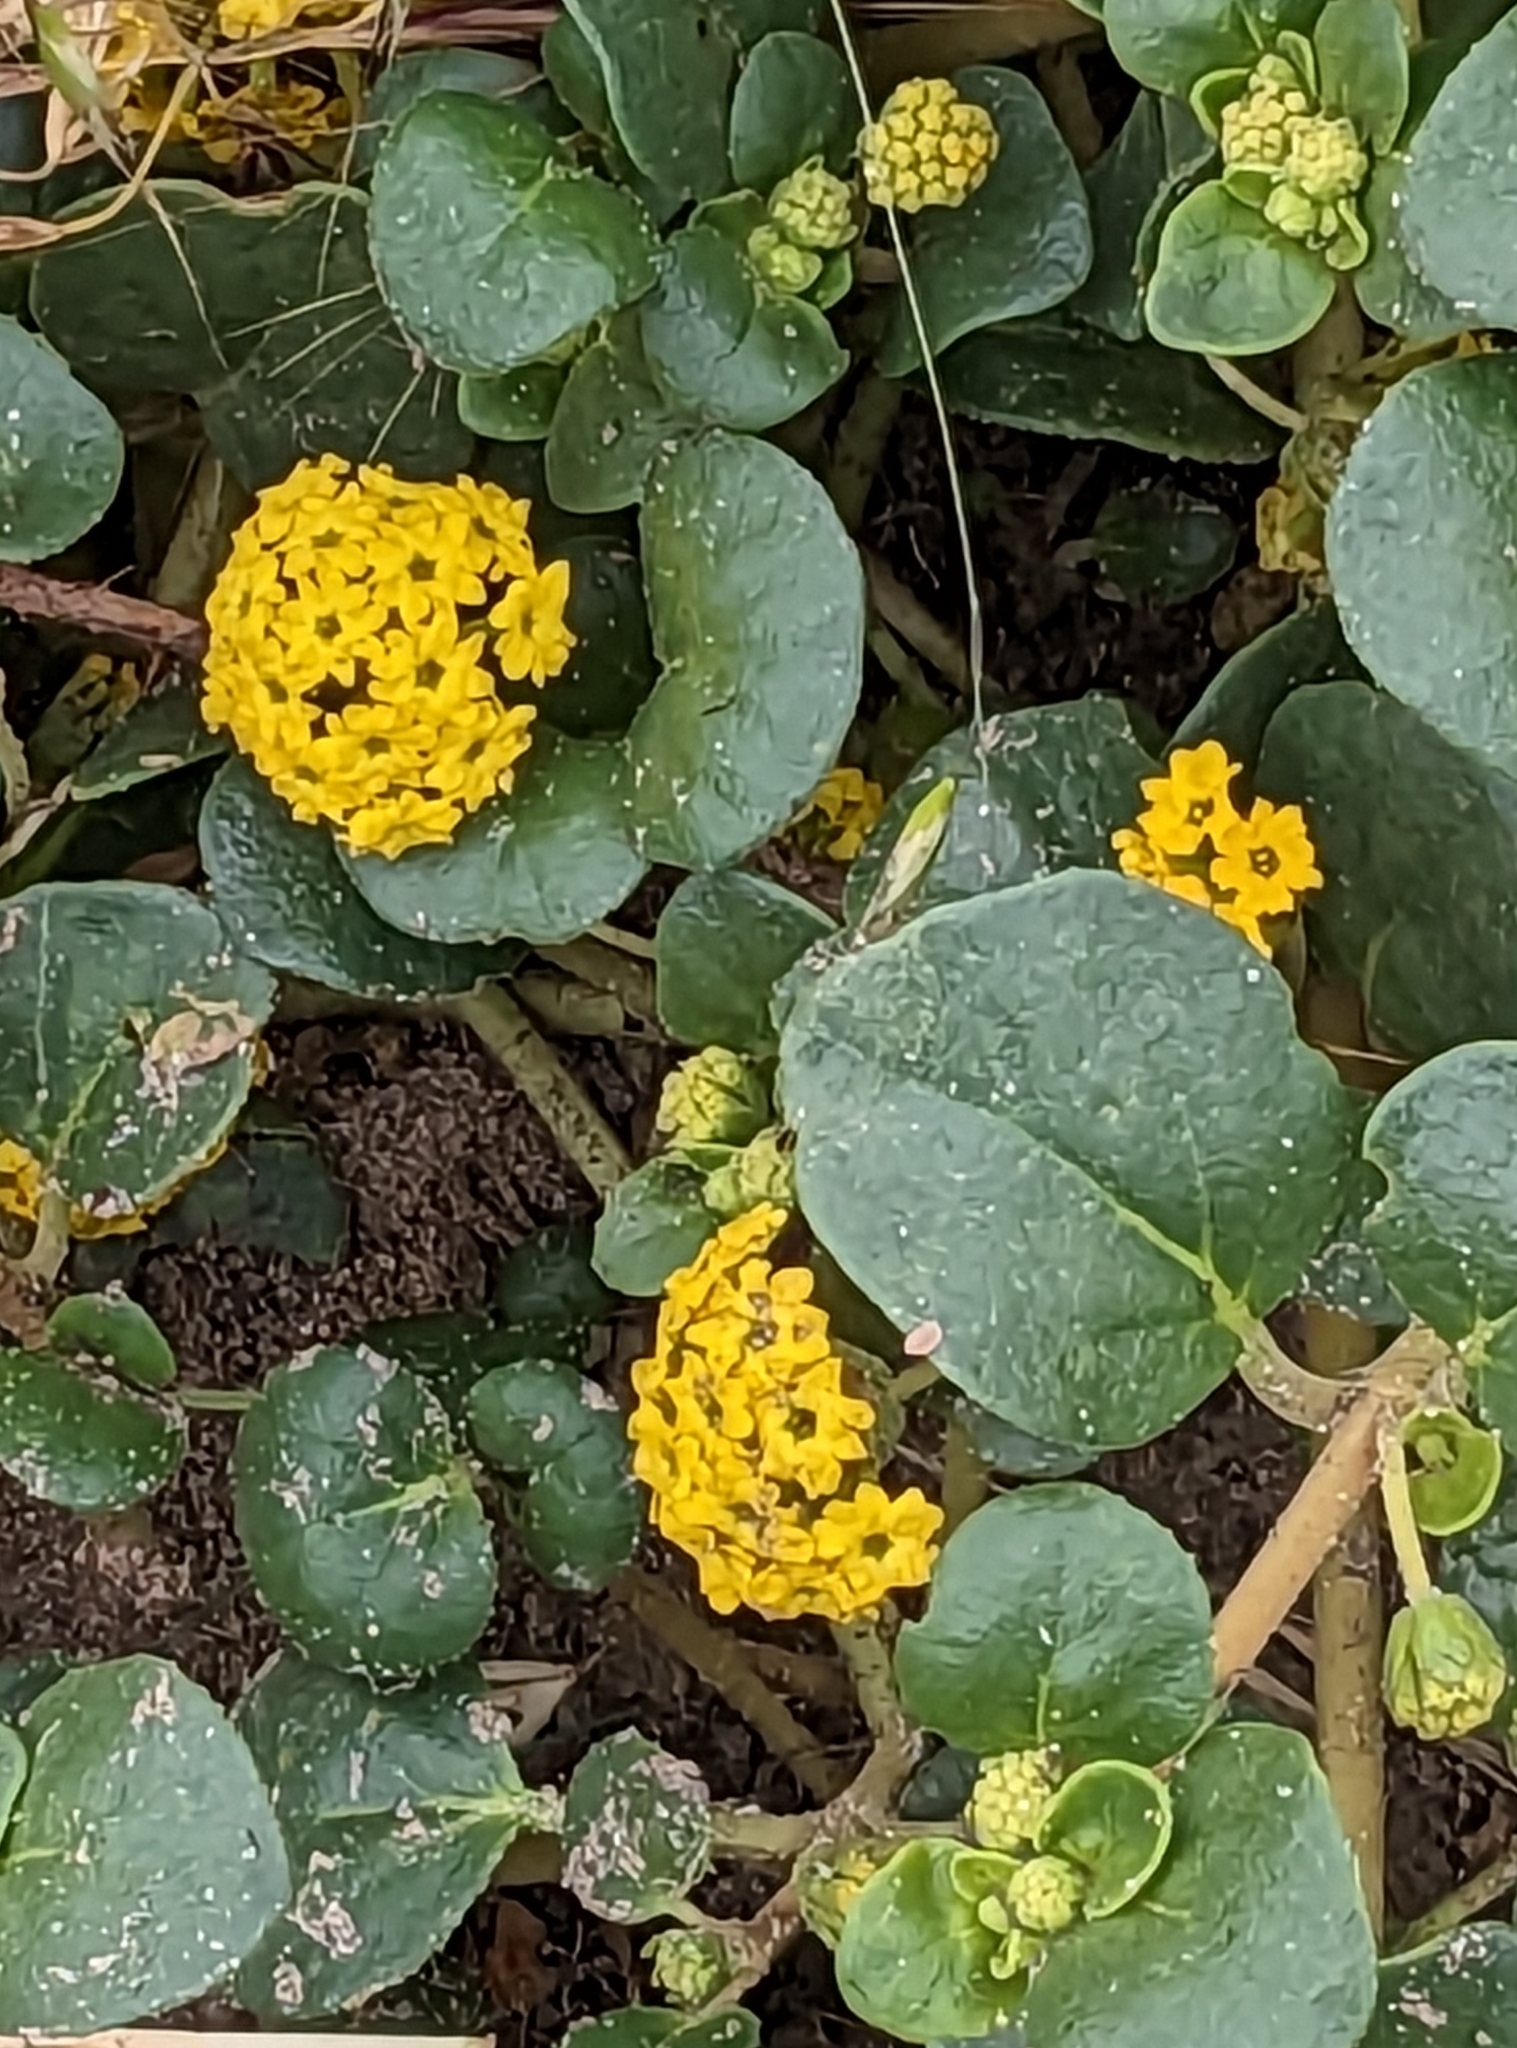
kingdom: Plantae
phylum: Tracheophyta
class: Magnoliopsida
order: Caryophyllales
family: Nyctaginaceae
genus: Abronia
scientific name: Abronia latifolia
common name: Yellow sand-verbena
